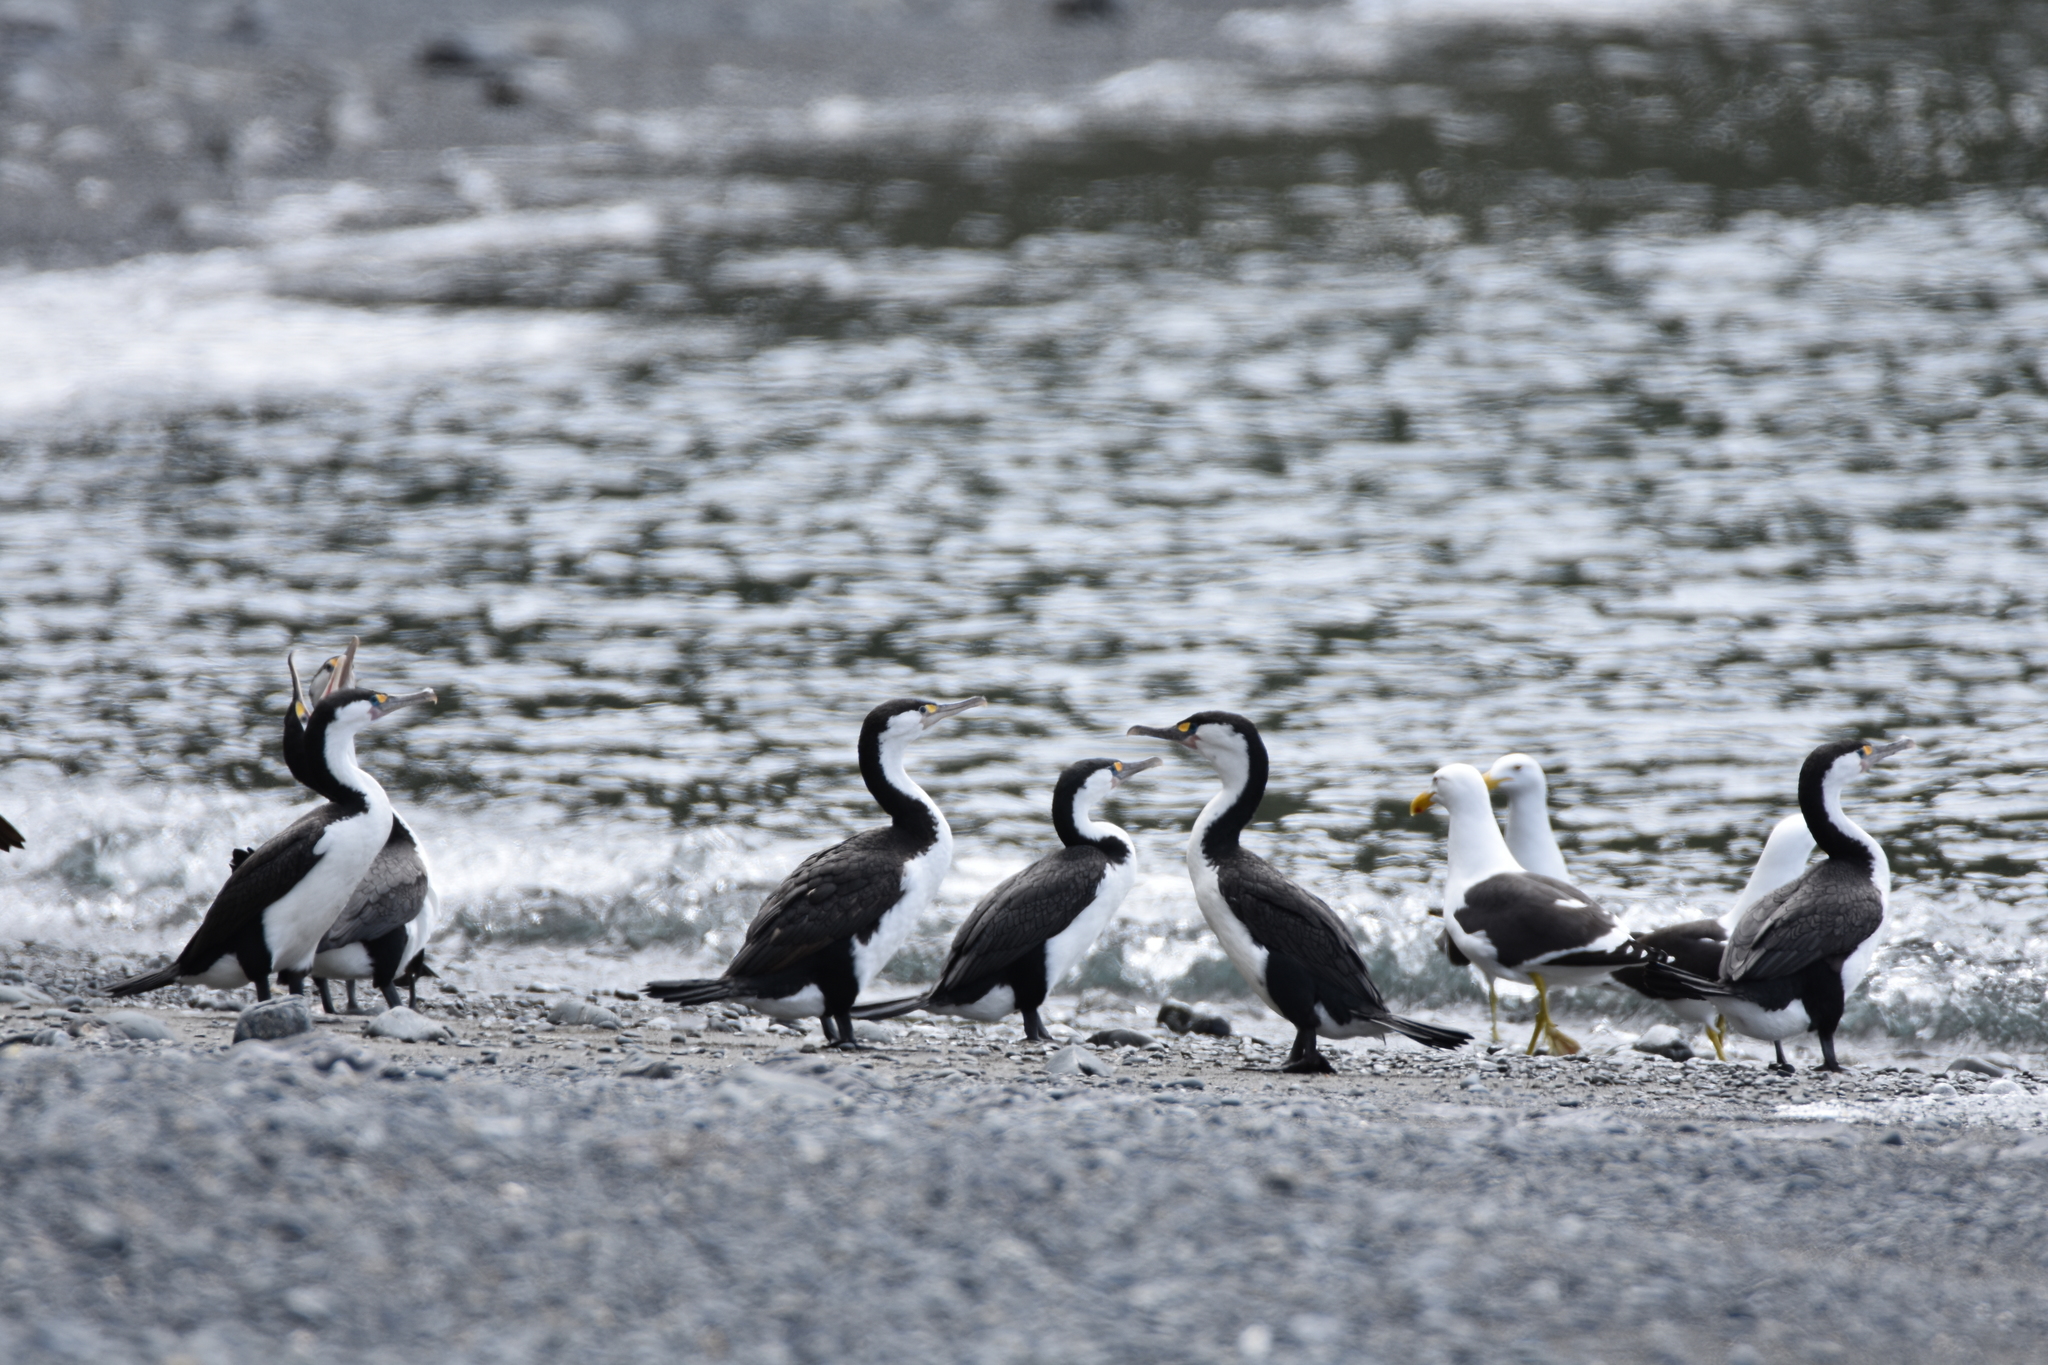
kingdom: Animalia
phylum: Chordata
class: Aves
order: Suliformes
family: Phalacrocoracidae
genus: Phalacrocorax
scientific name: Phalacrocorax varius
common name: Pied cormorant
